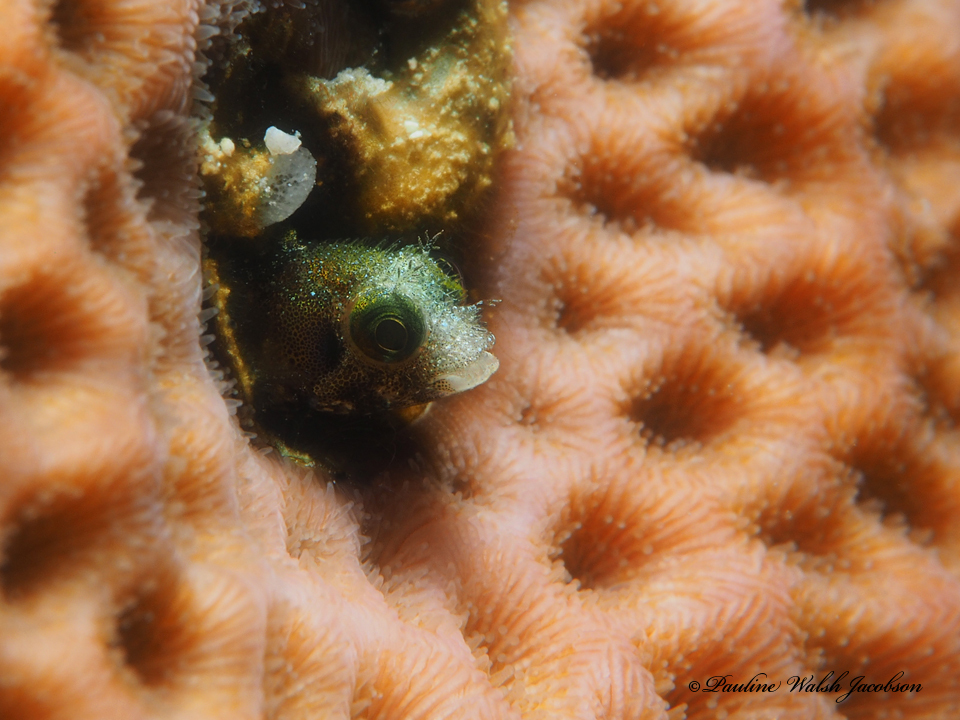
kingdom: Animalia
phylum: Chordata
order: Perciformes
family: Chaenopsidae
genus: Acanthemblemaria
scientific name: Acanthemblemaria spinosa
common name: Spinyhead blenny
